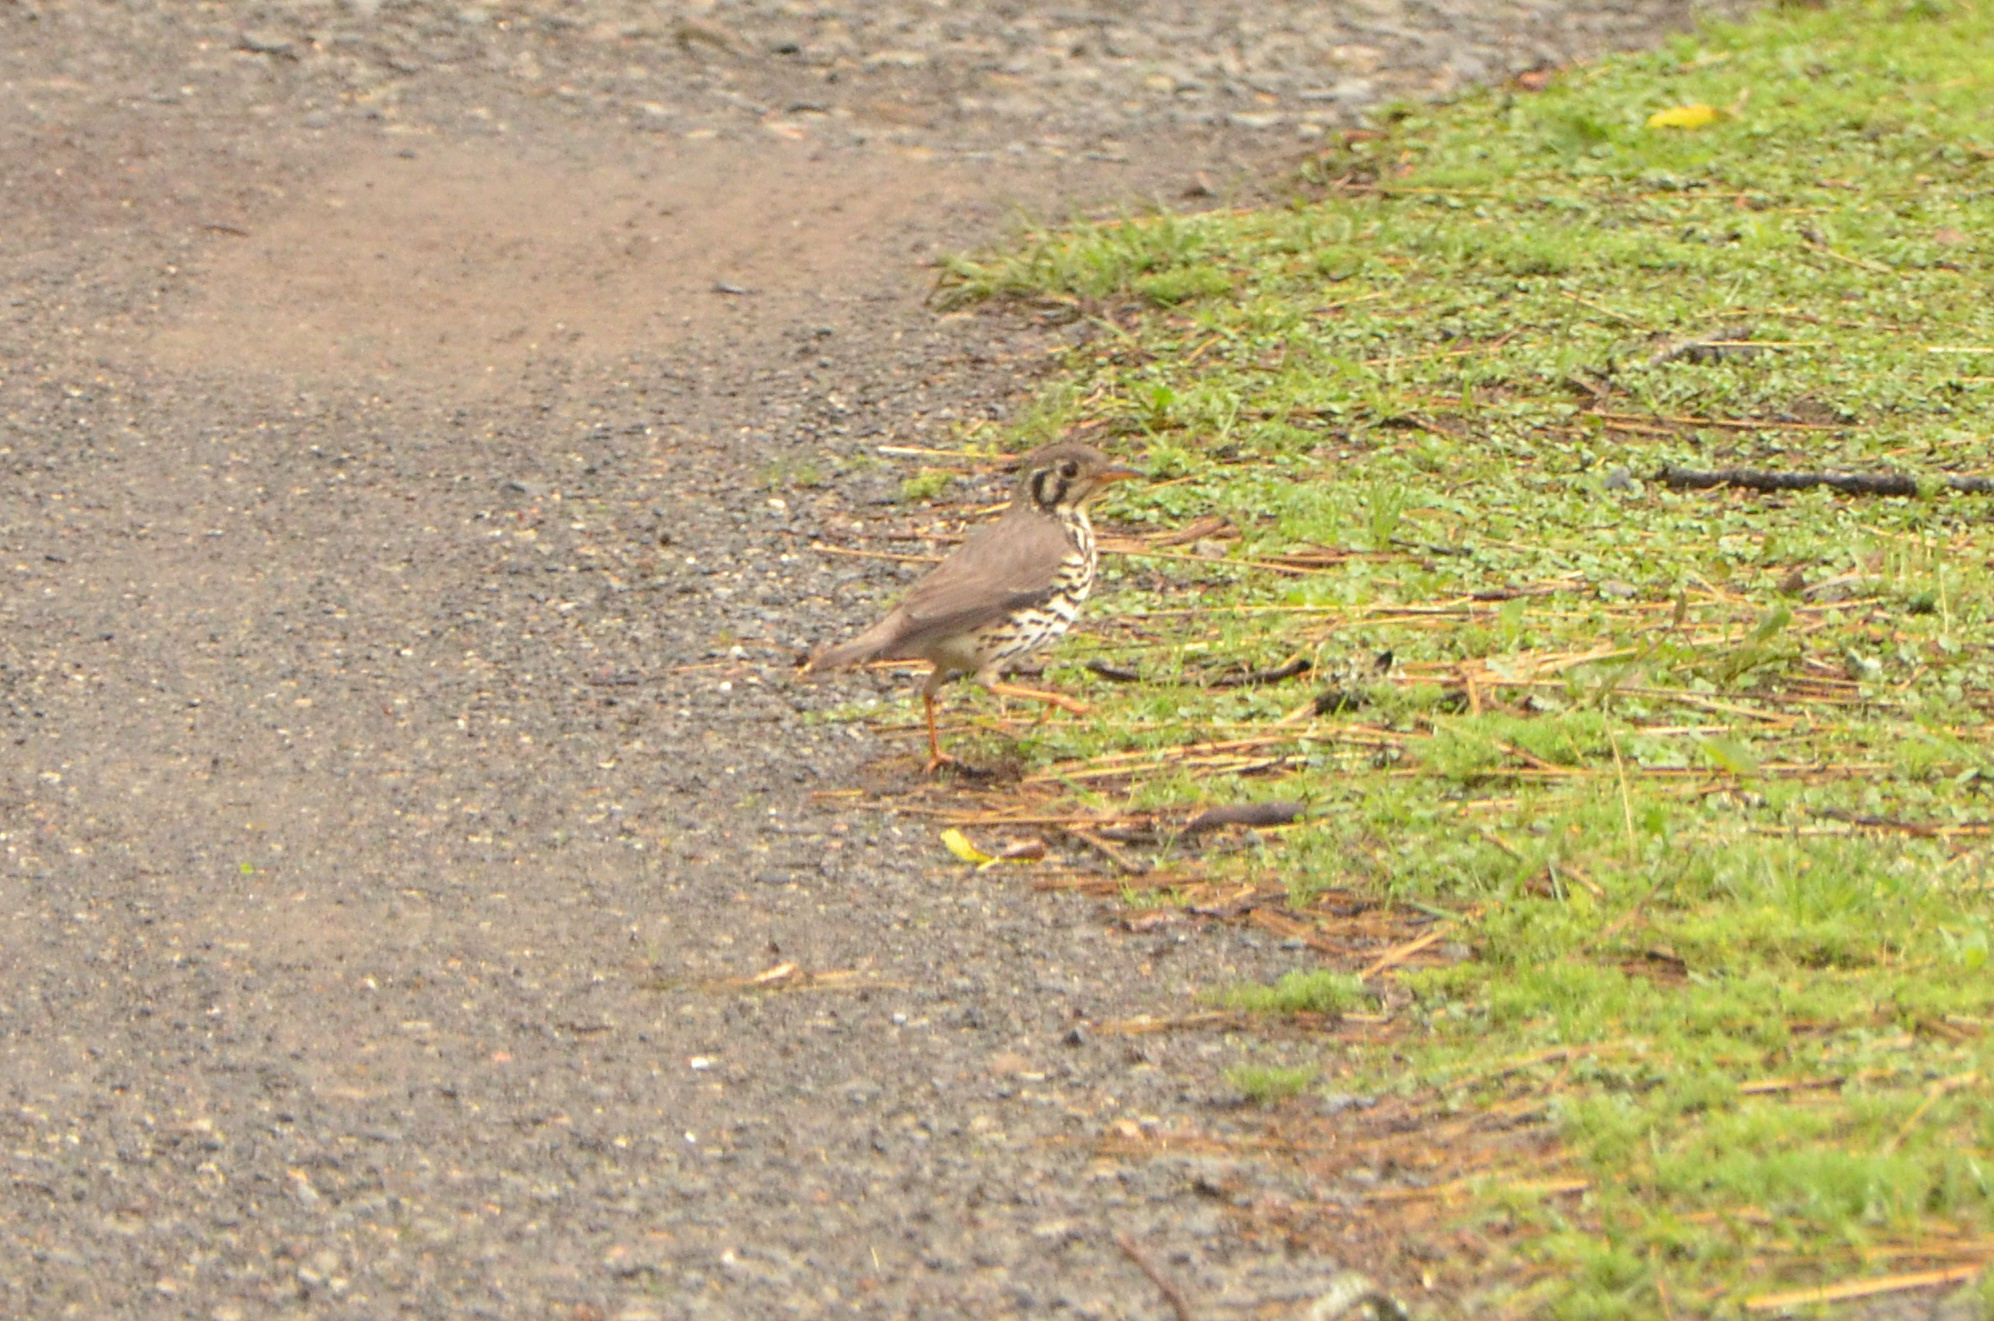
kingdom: Animalia
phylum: Chordata
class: Aves
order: Passeriformes
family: Turdidae
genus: Psophocichla
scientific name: Psophocichla litsitsirupa
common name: Groundscraper thrush
